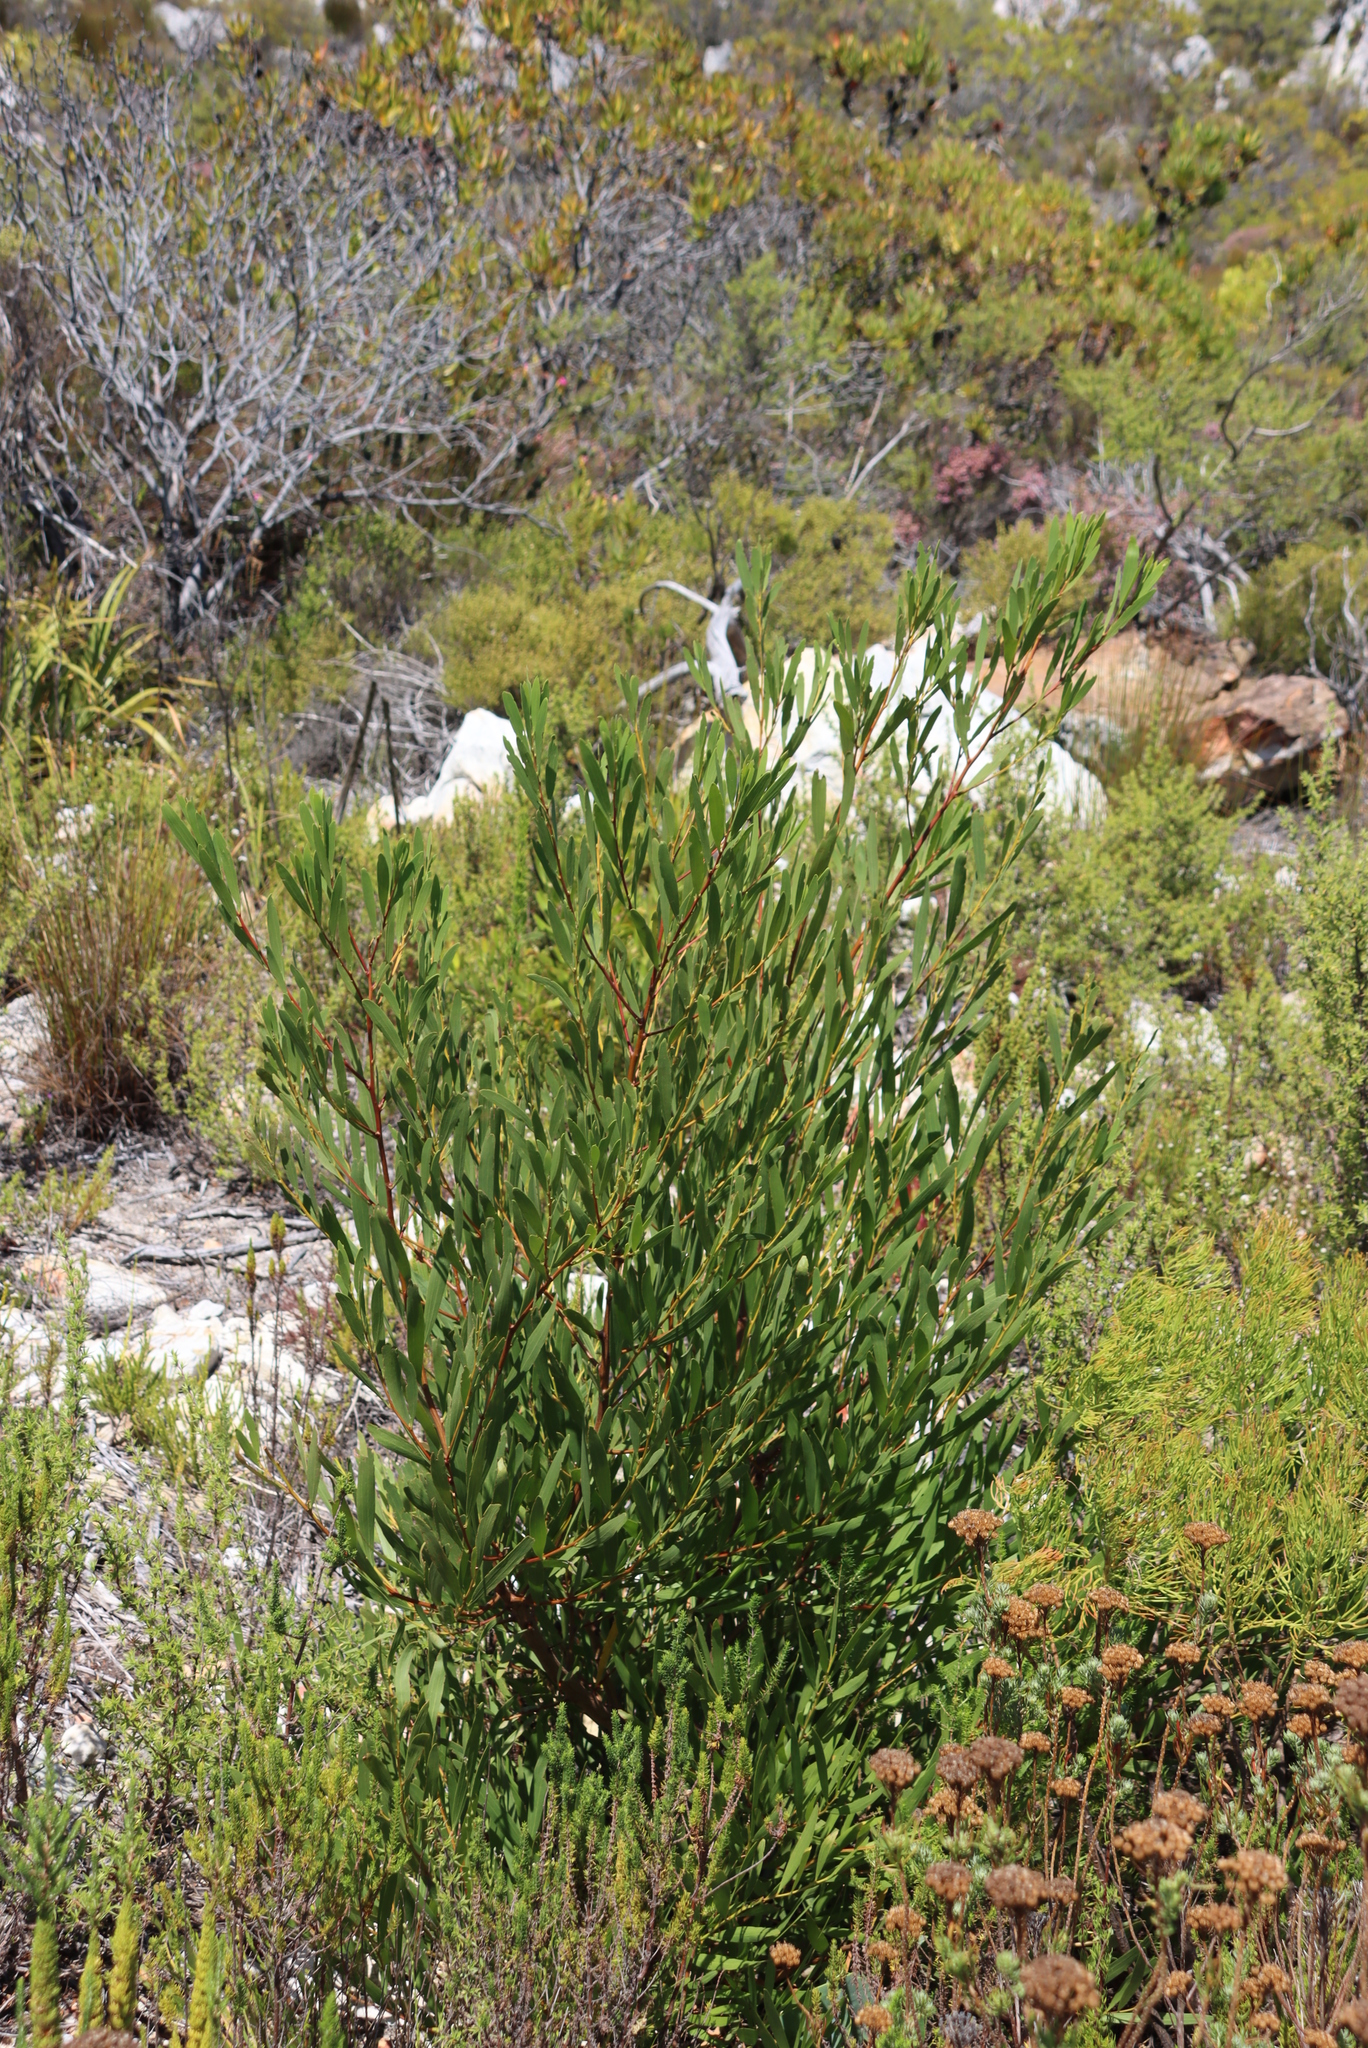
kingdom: Plantae
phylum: Tracheophyta
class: Magnoliopsida
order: Fabales
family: Fabaceae
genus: Acacia
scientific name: Acacia longifolia
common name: Sydney golden wattle
